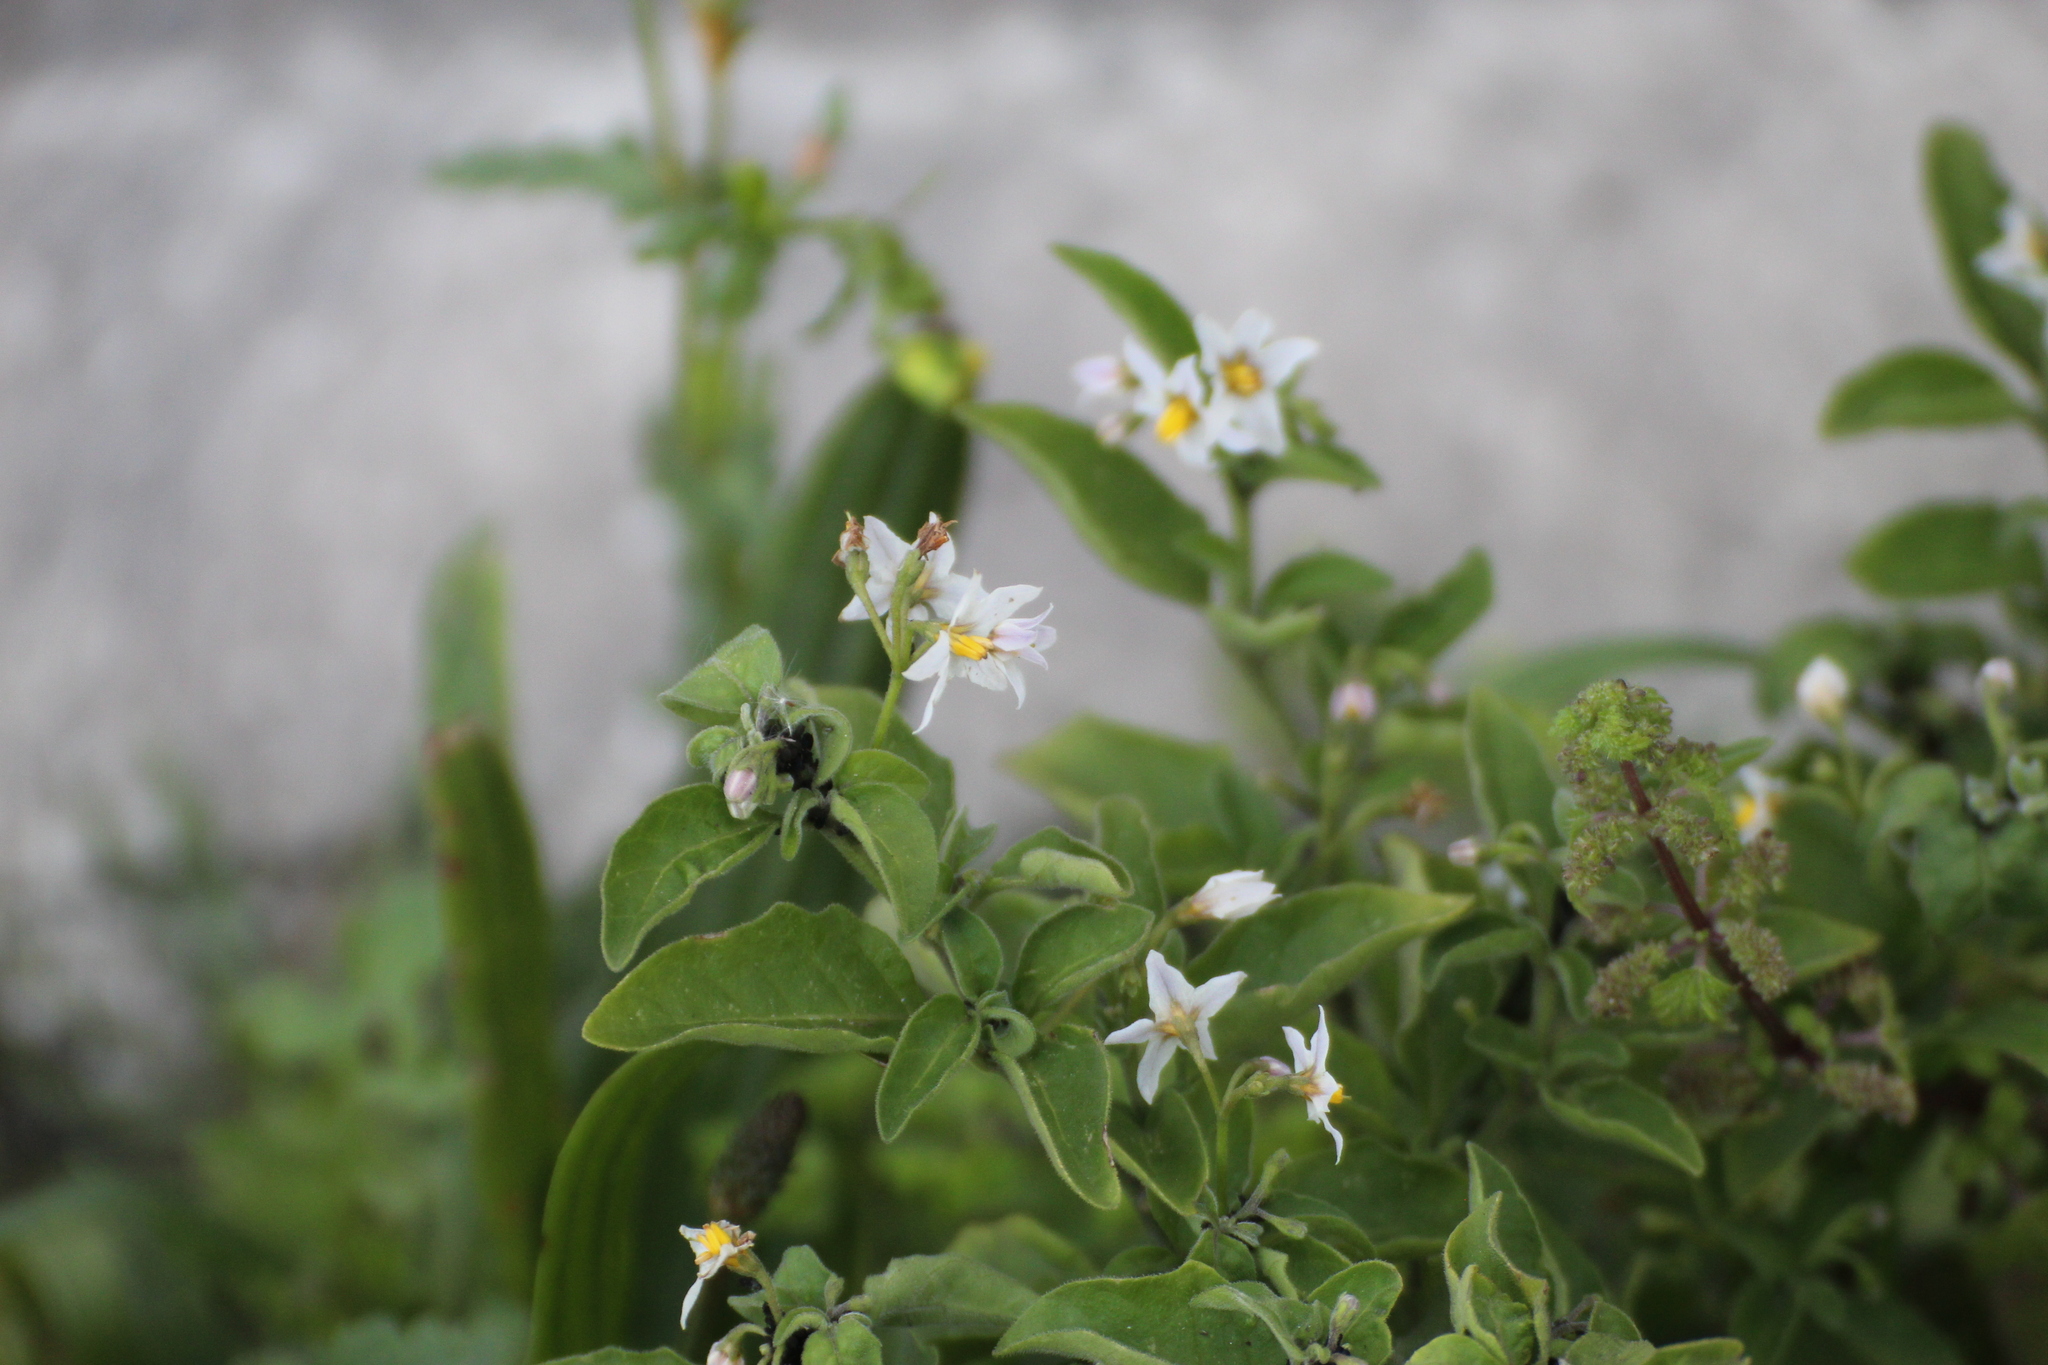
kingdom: Plantae
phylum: Tracheophyta
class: Magnoliopsida
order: Solanales
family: Solanaceae
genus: Solanum
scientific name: Solanum chenopodioides
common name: Tall nightshade
